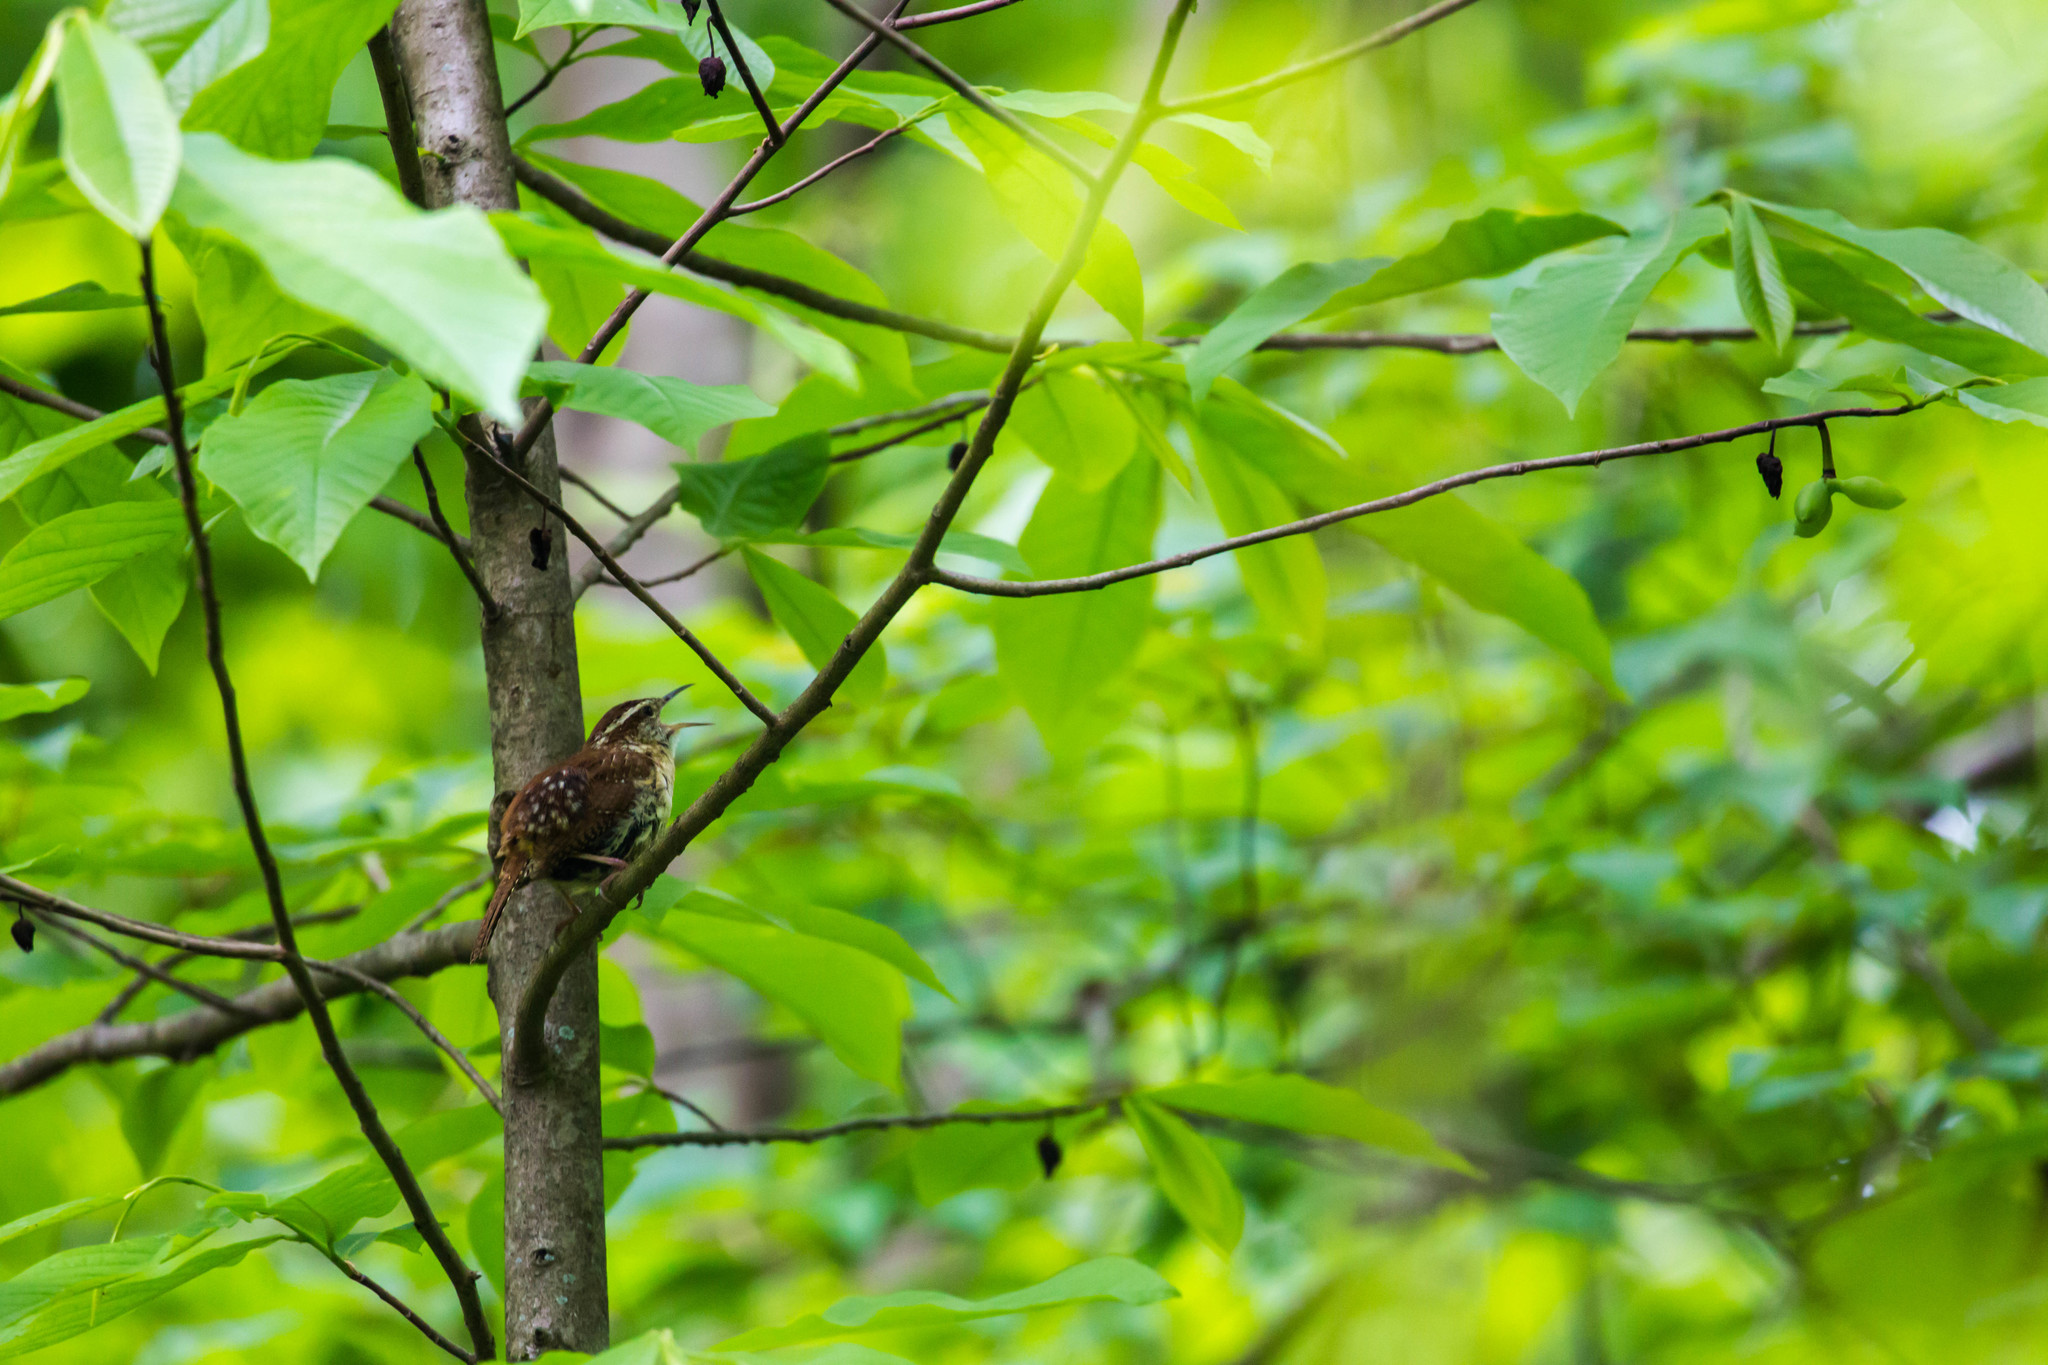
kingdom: Animalia
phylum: Chordata
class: Aves
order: Passeriformes
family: Troglodytidae
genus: Thryothorus
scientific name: Thryothorus ludovicianus
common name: Carolina wren
